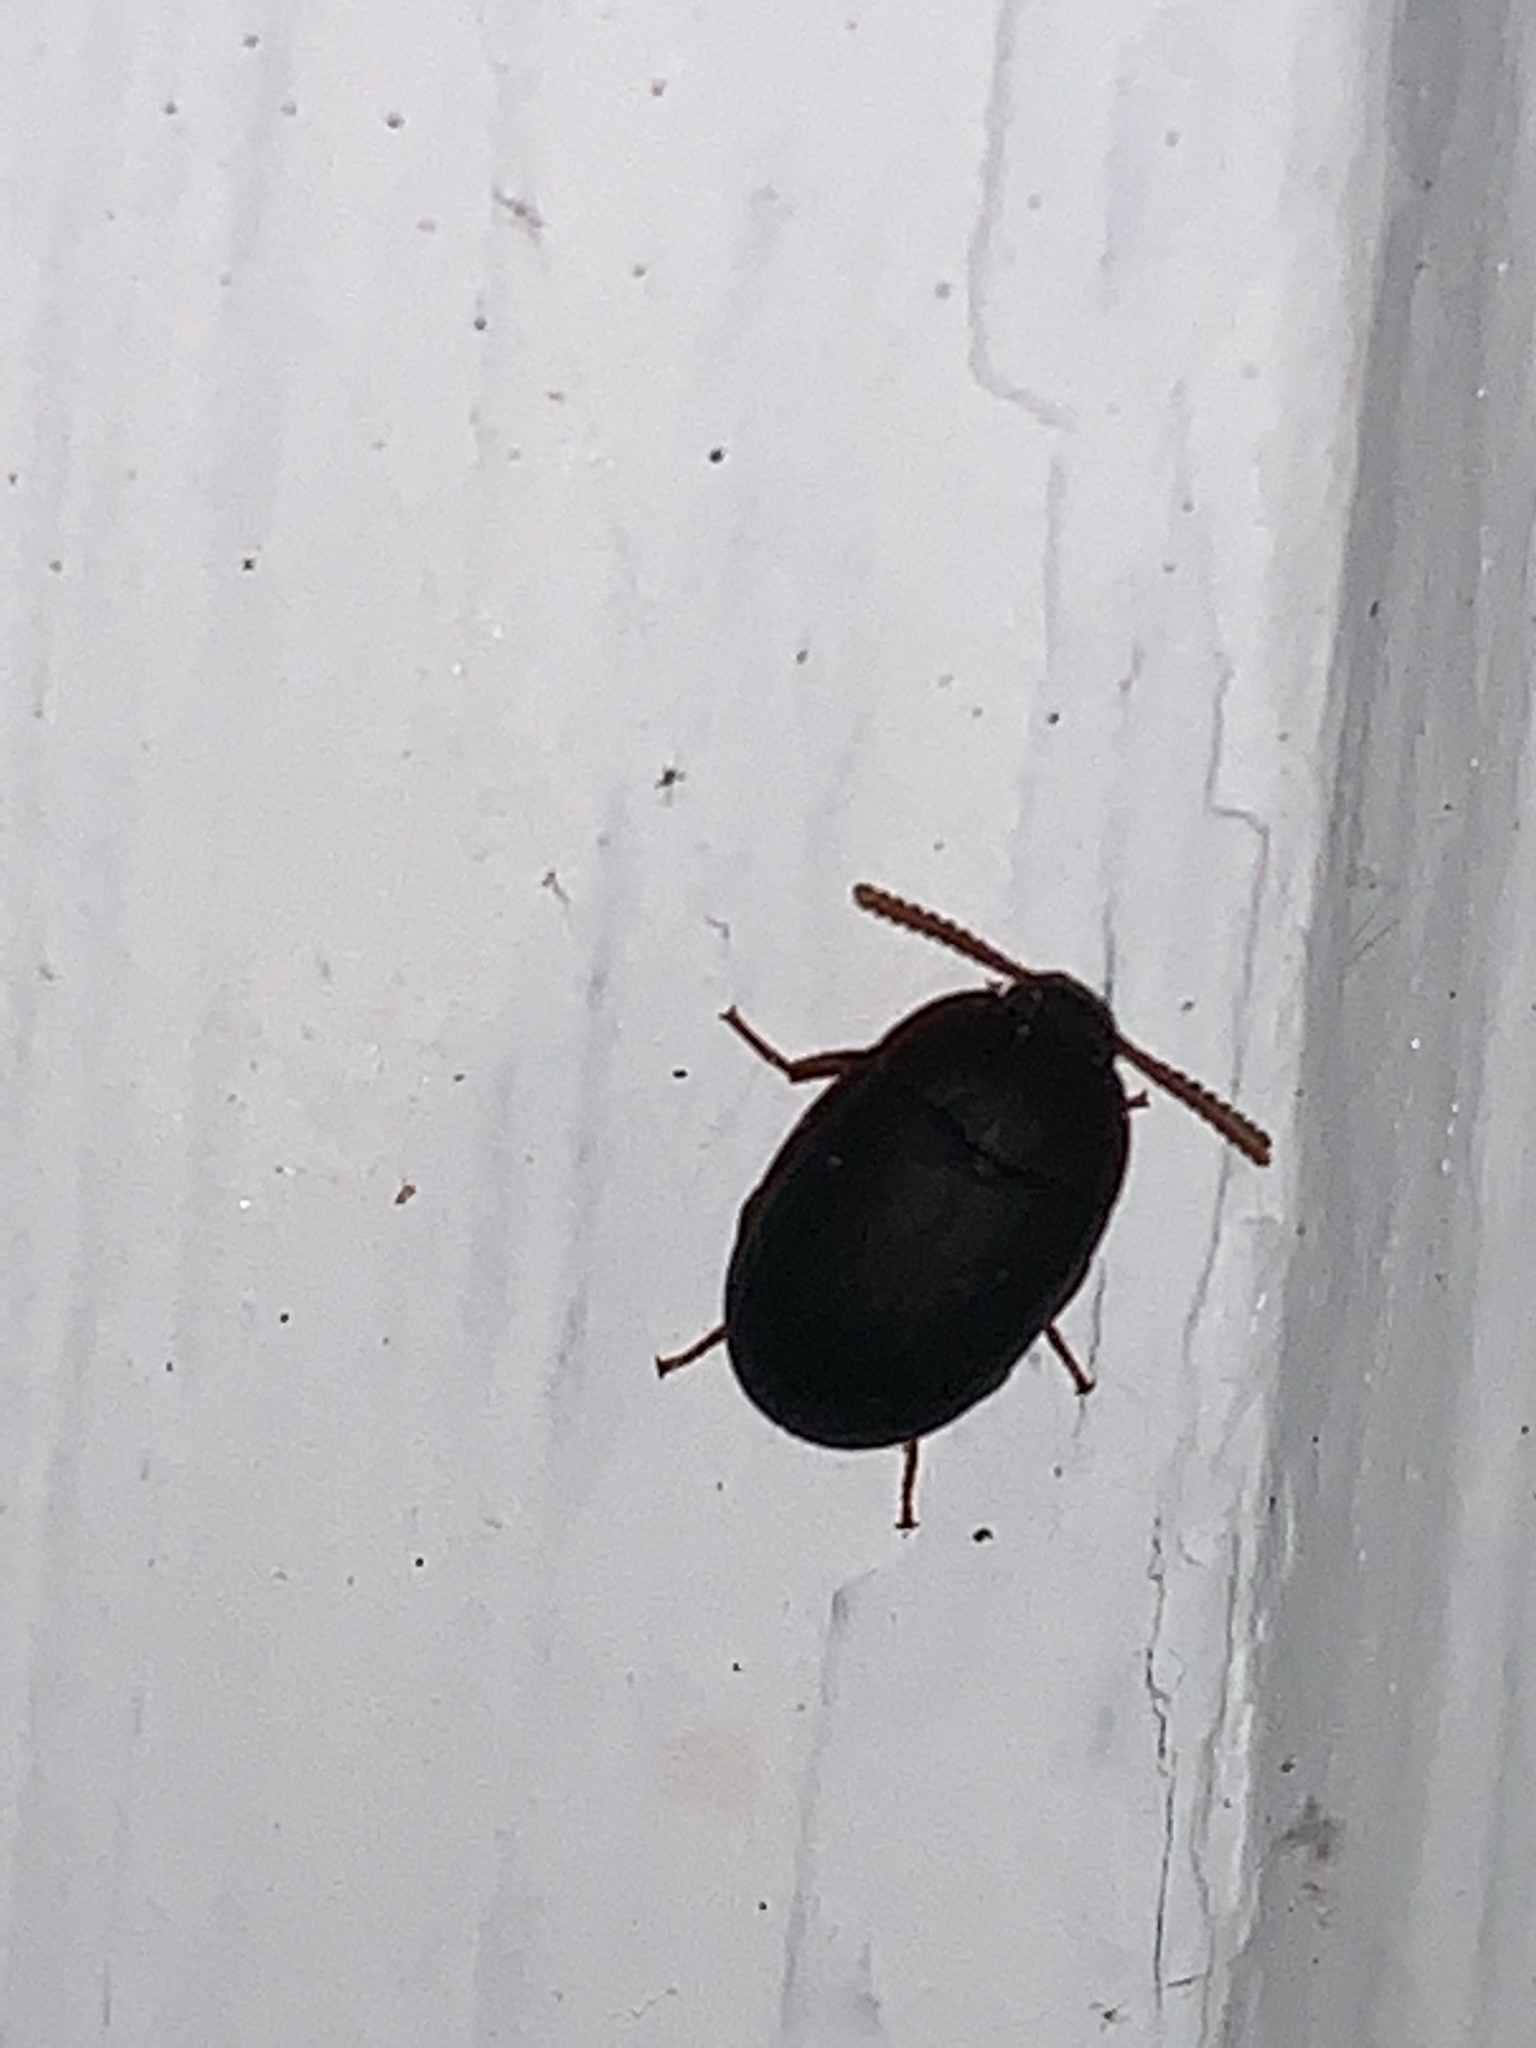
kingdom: Animalia
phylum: Arthropoda
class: Insecta
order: Coleoptera
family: Tenebrionidae
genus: Platydema
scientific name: Platydema ruficornis
